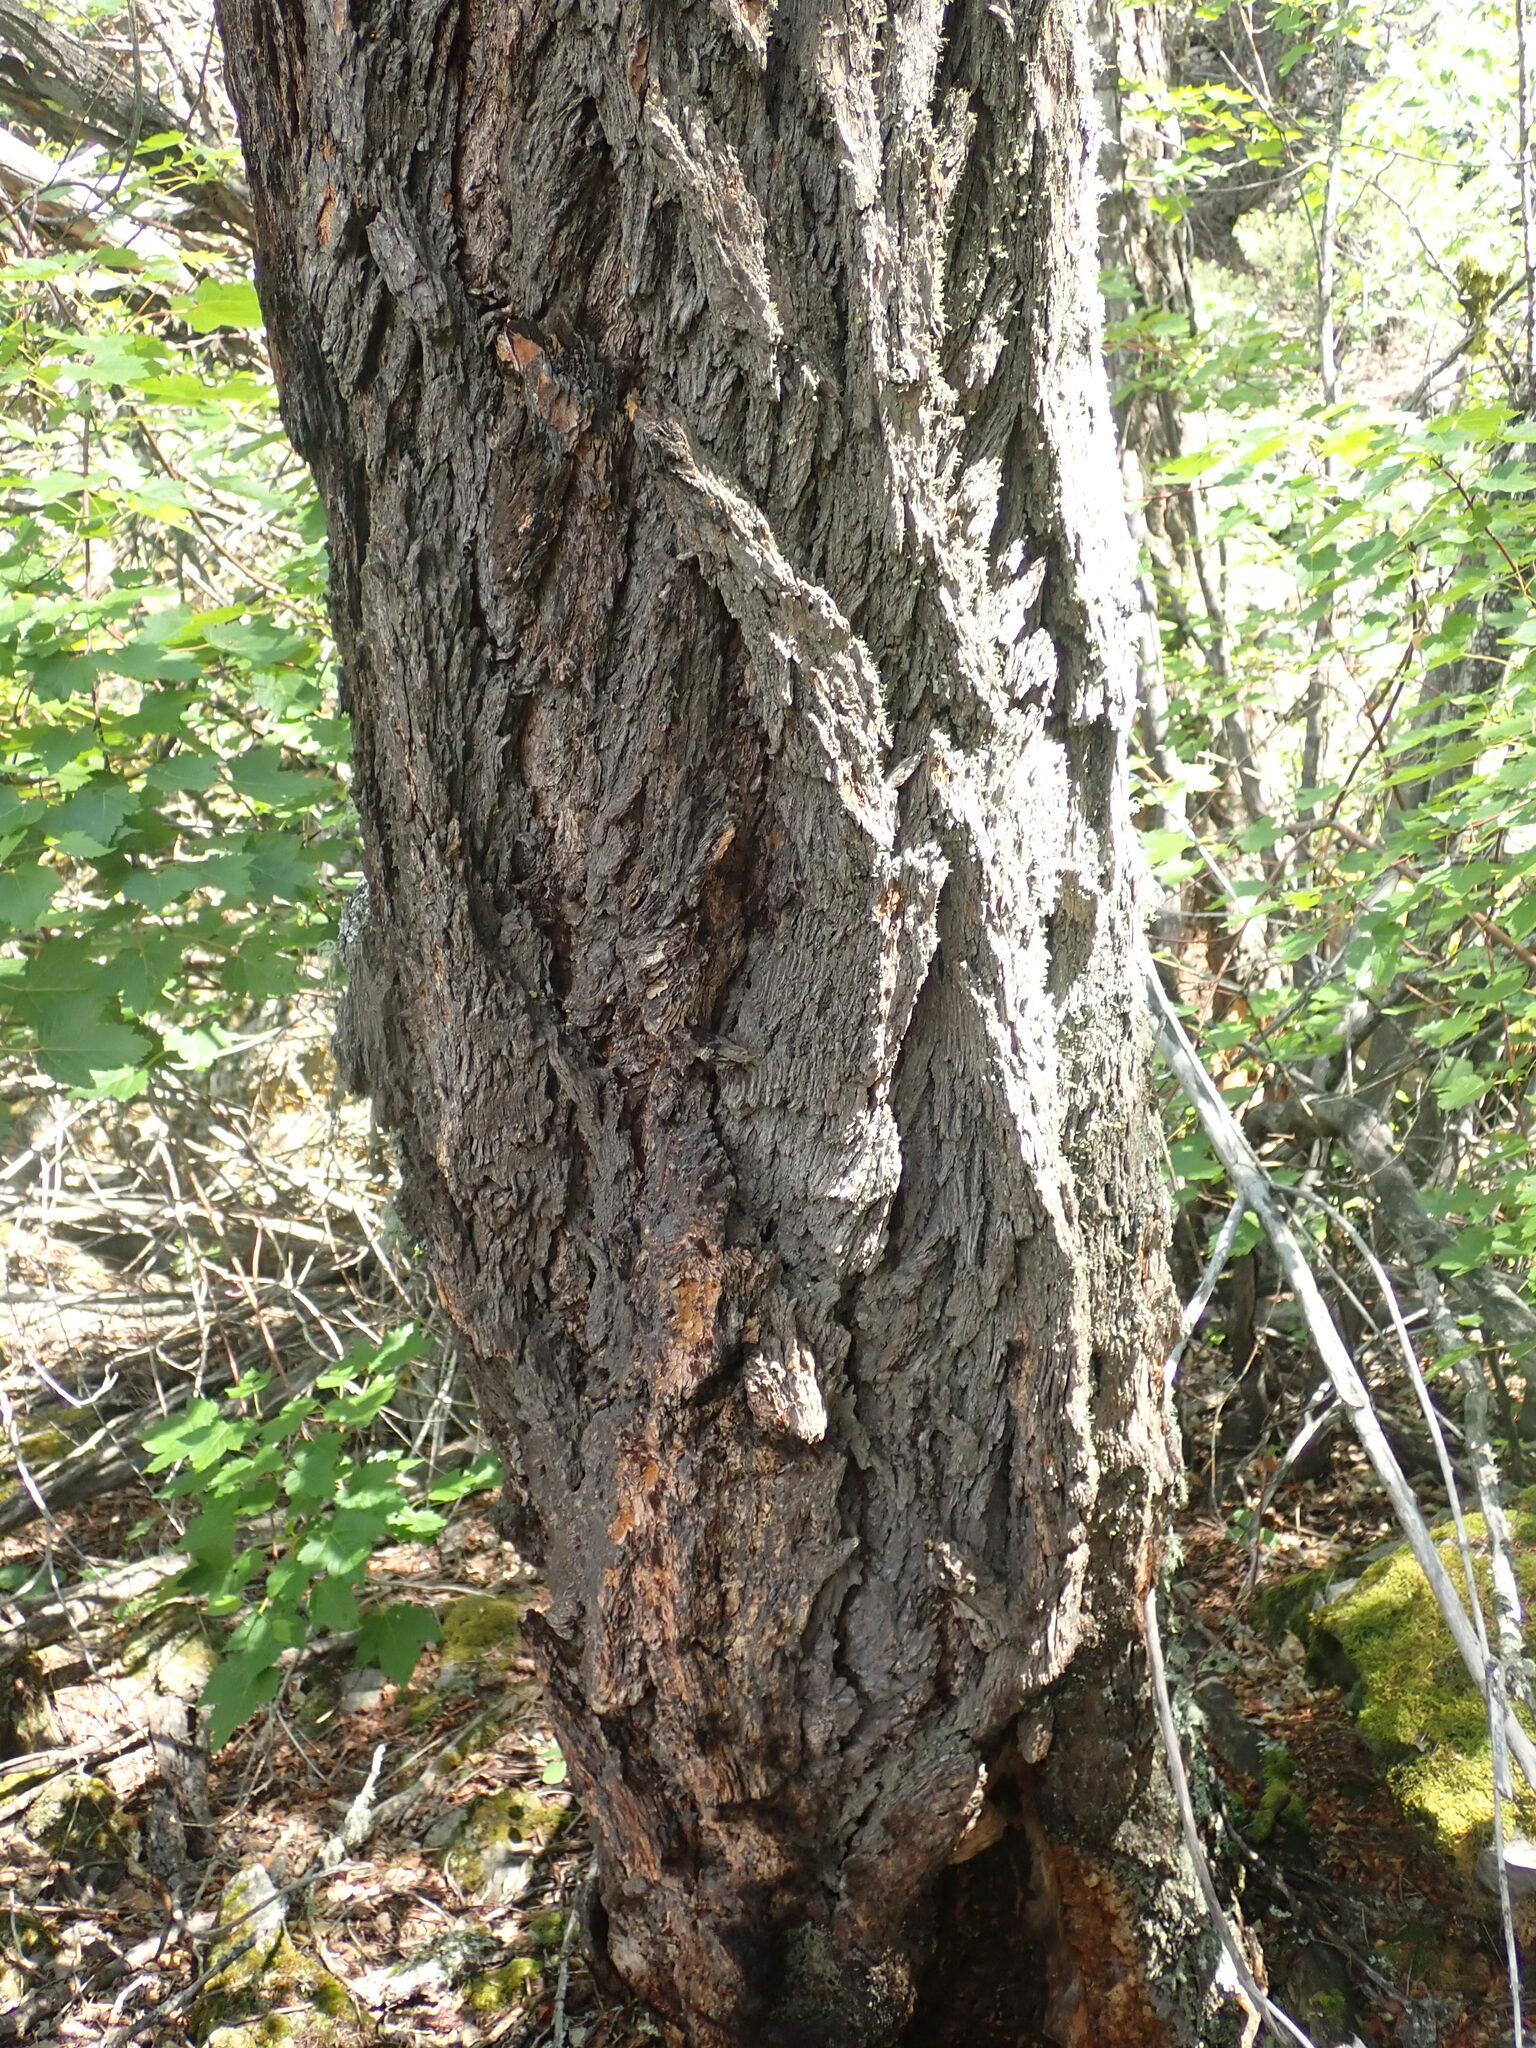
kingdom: Plantae
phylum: Tracheophyta
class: Pinopsida
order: Pinales
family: Pinaceae
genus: Pseudotsuga
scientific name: Pseudotsuga menziesii
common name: Douglas fir
